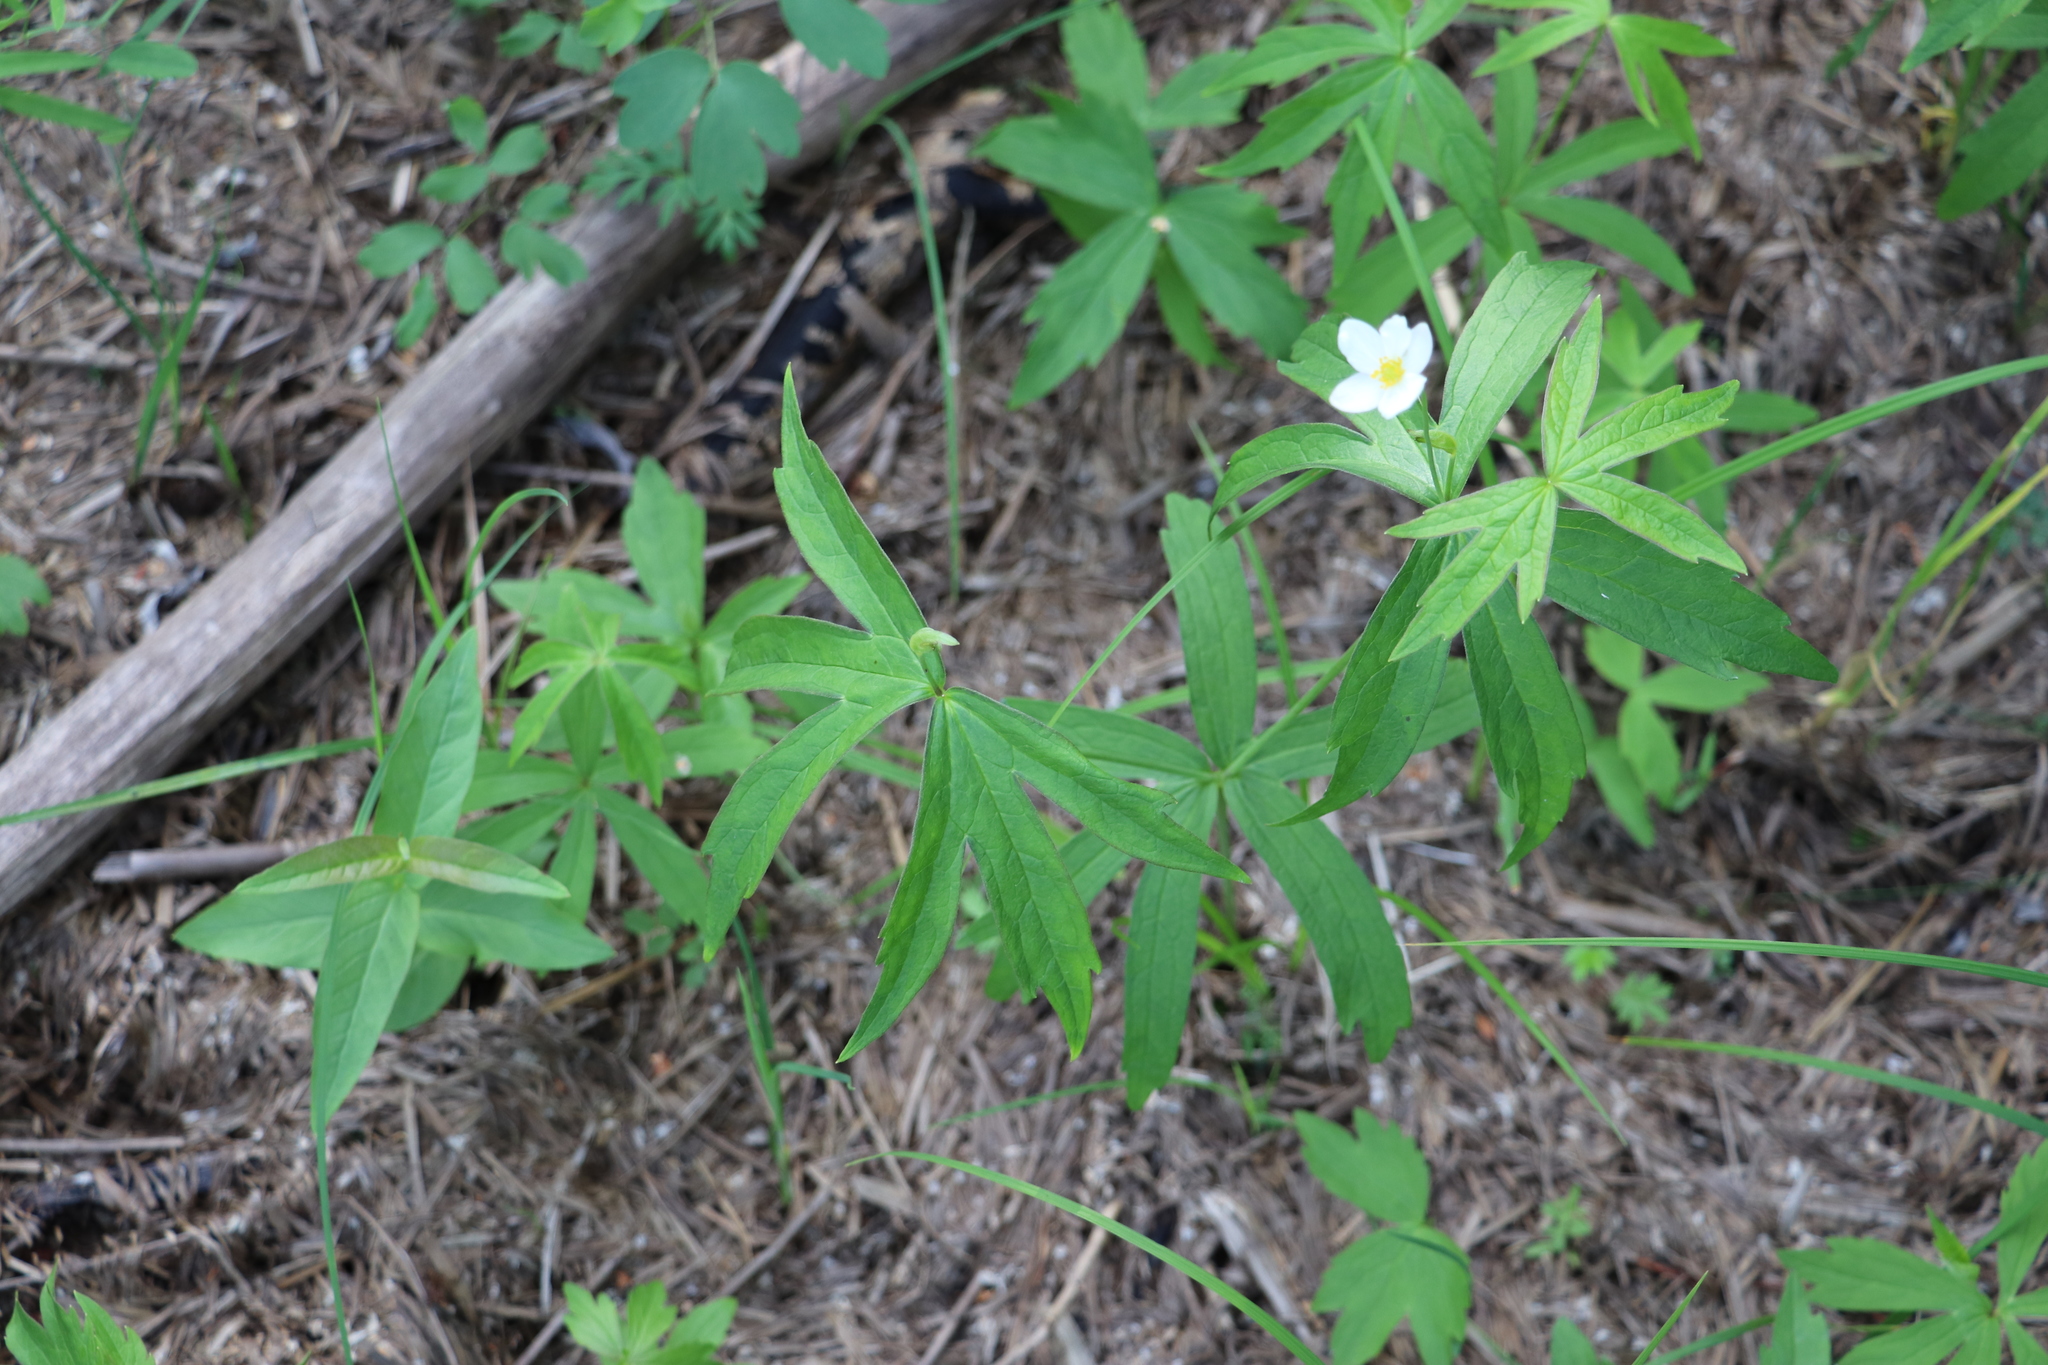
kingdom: Plantae
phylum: Tracheophyta
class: Magnoliopsida
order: Ranunculales
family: Ranunculaceae
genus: Anemonastrum
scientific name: Anemonastrum dichotomum
